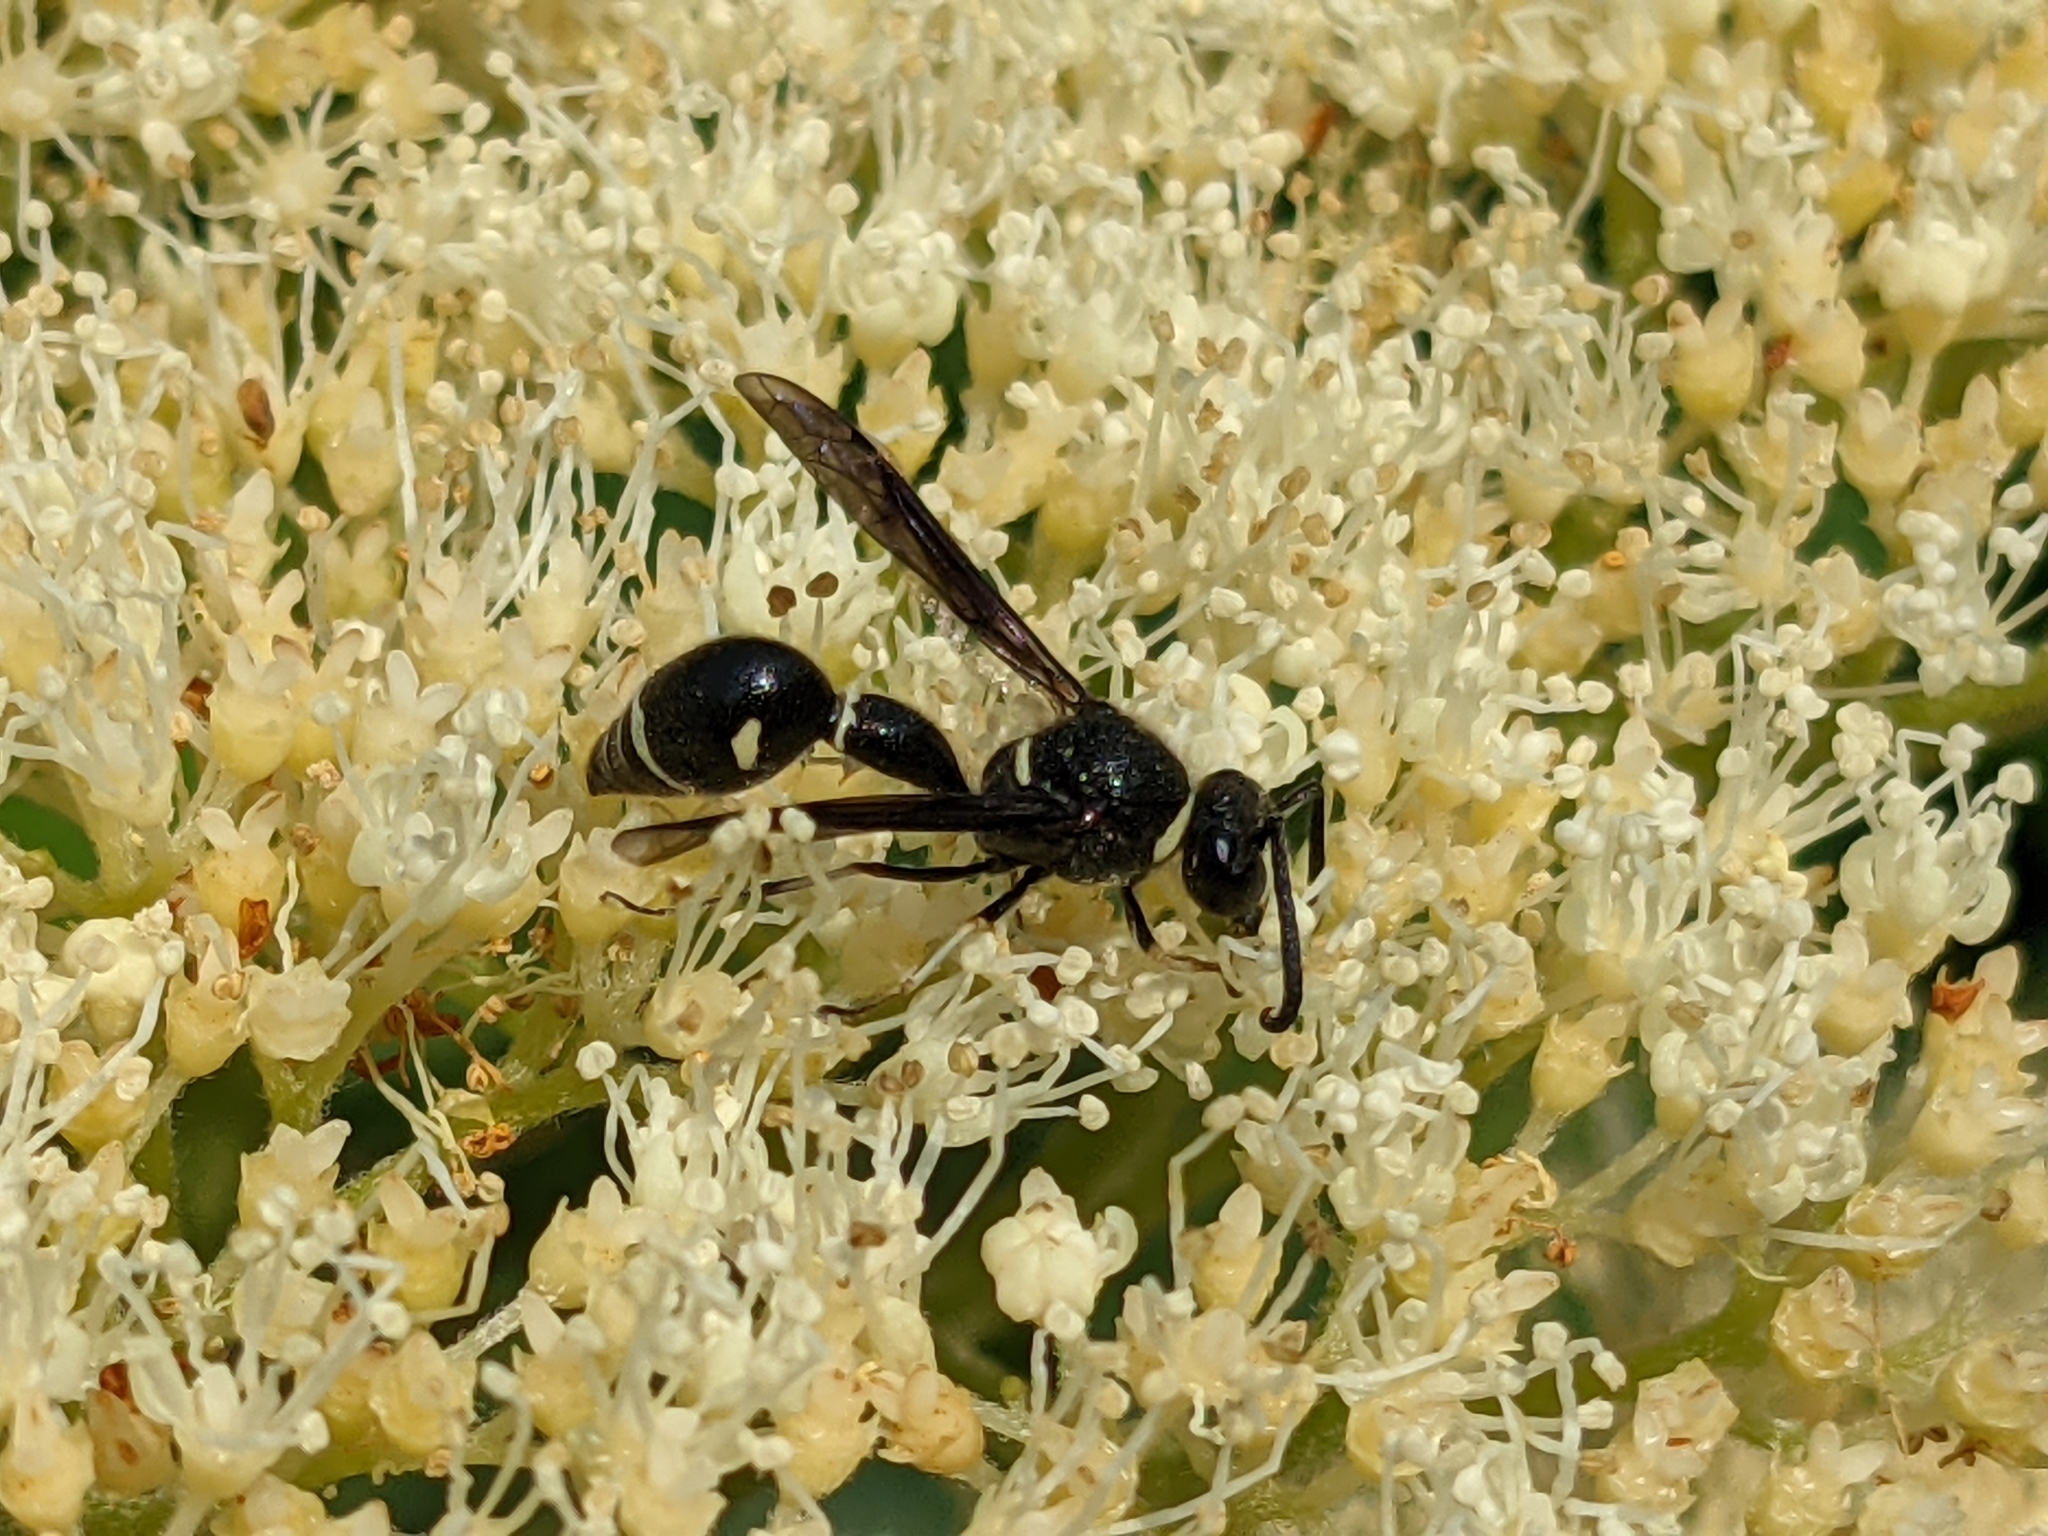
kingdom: Animalia
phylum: Arthropoda
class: Insecta
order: Hymenoptera
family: Vespidae
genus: Eumenes
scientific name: Eumenes fraternus
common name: Fraternal potter wasp
